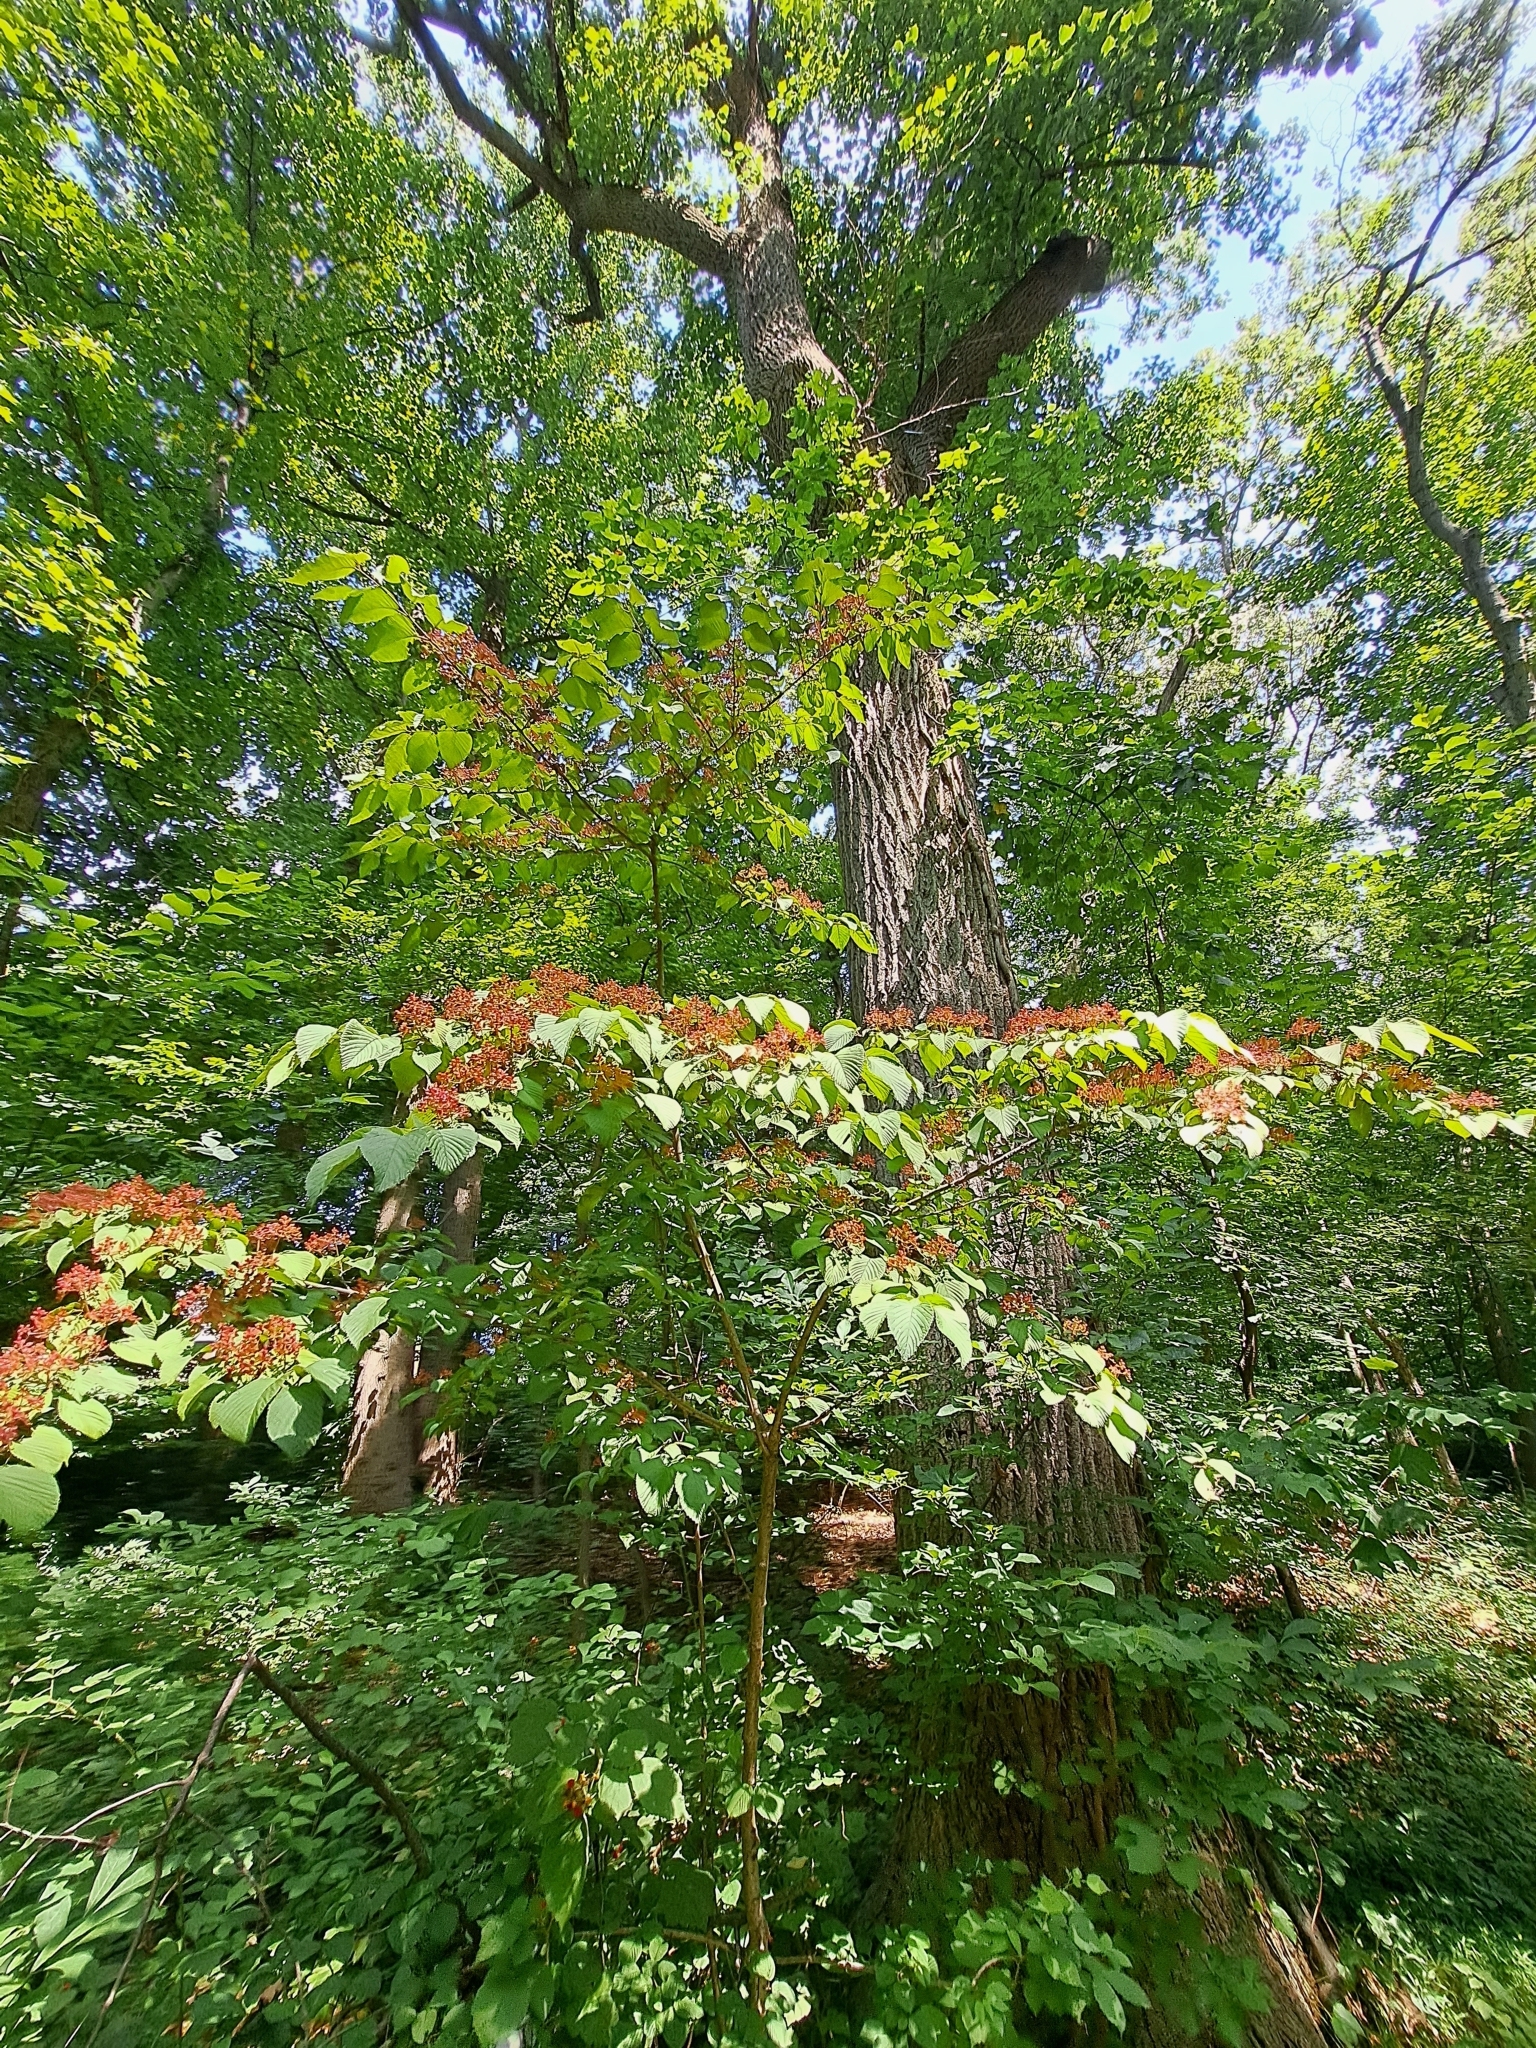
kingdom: Plantae
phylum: Tracheophyta
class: Magnoliopsida
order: Dipsacales
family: Viburnaceae
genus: Viburnum
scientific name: Viburnum plicatum
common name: Japanese snowball
